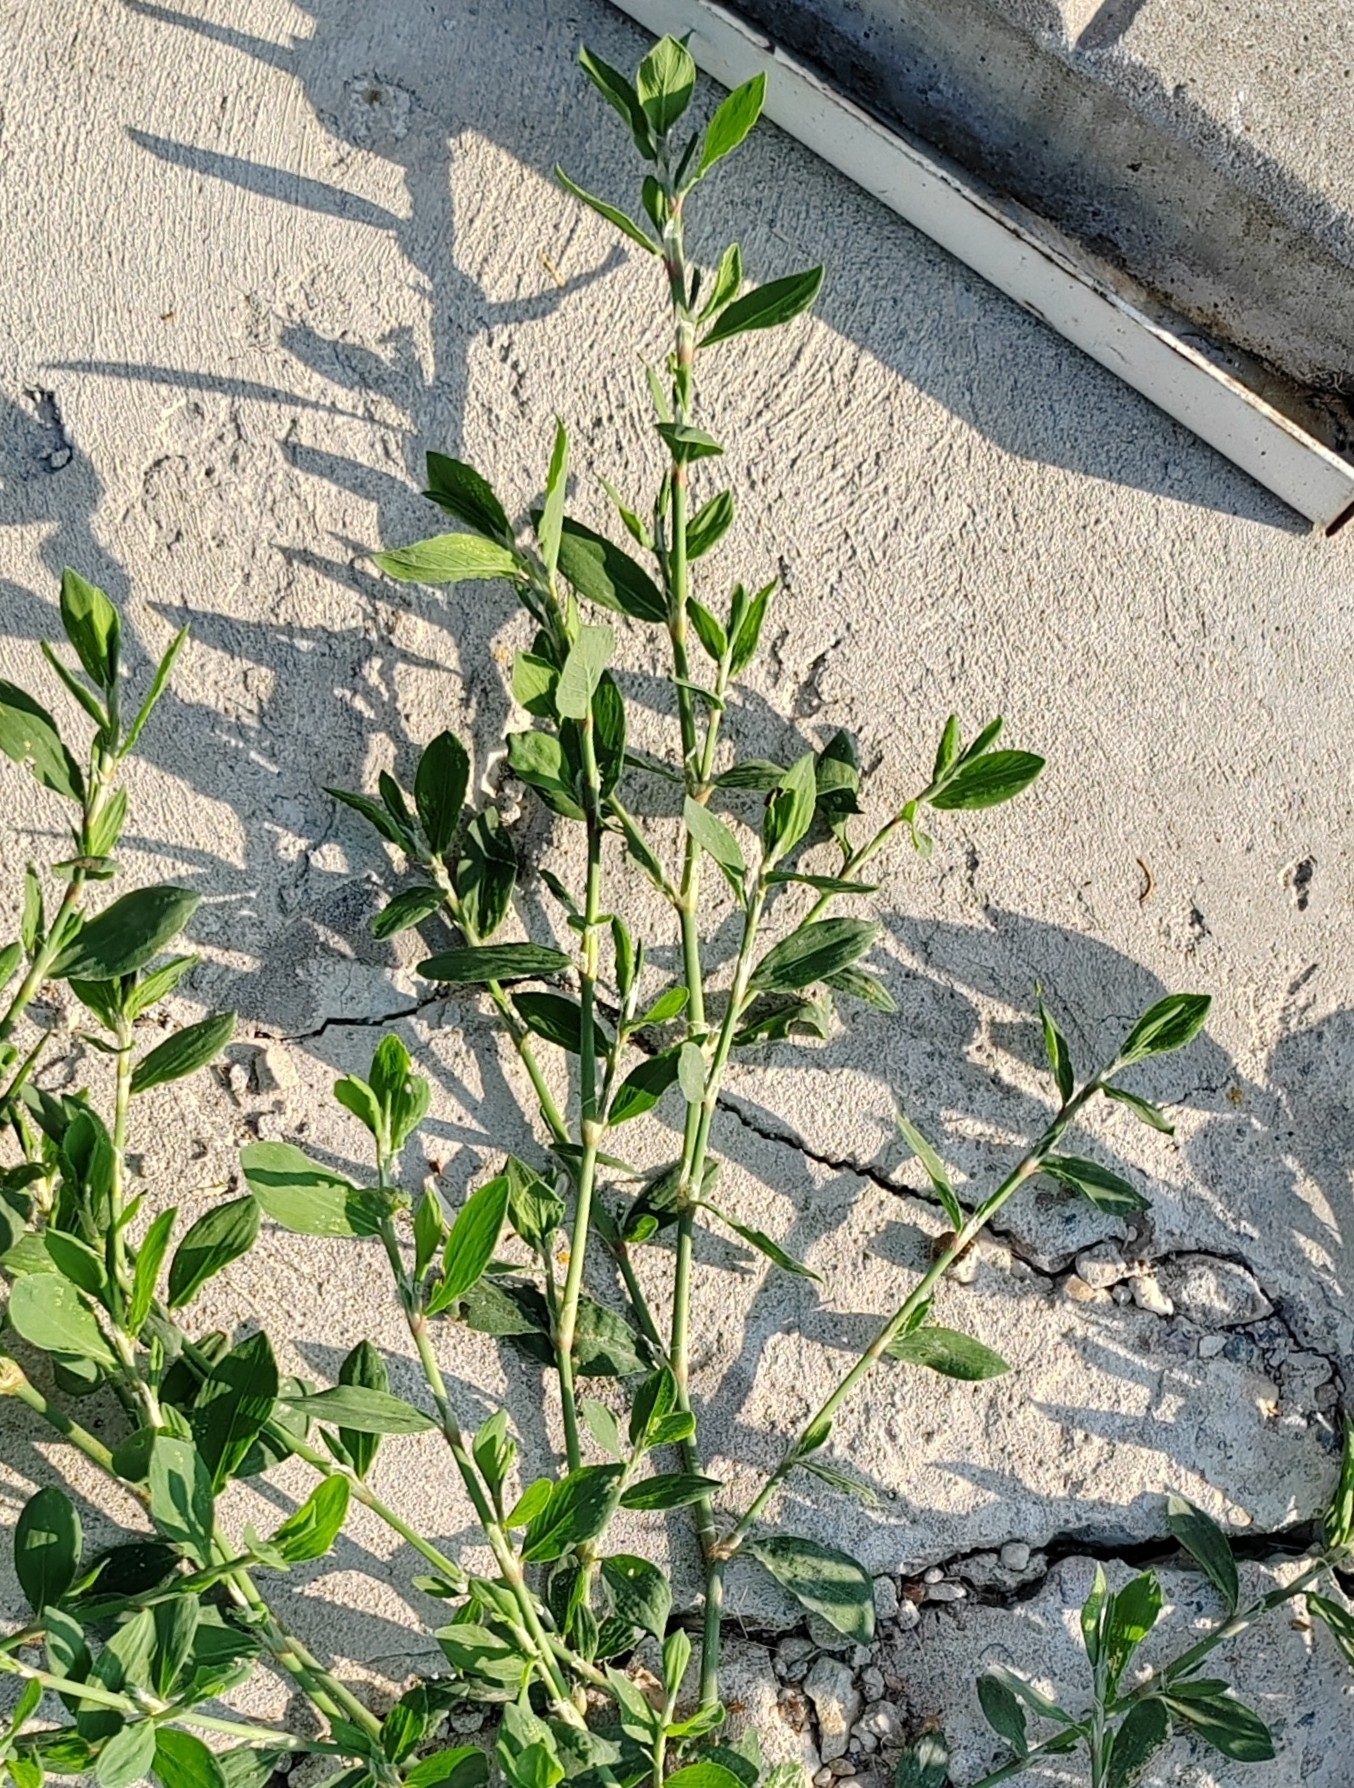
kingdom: Plantae
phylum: Tracheophyta
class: Magnoliopsida
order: Caryophyllales
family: Polygonaceae
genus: Polygonum
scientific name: Polygonum
